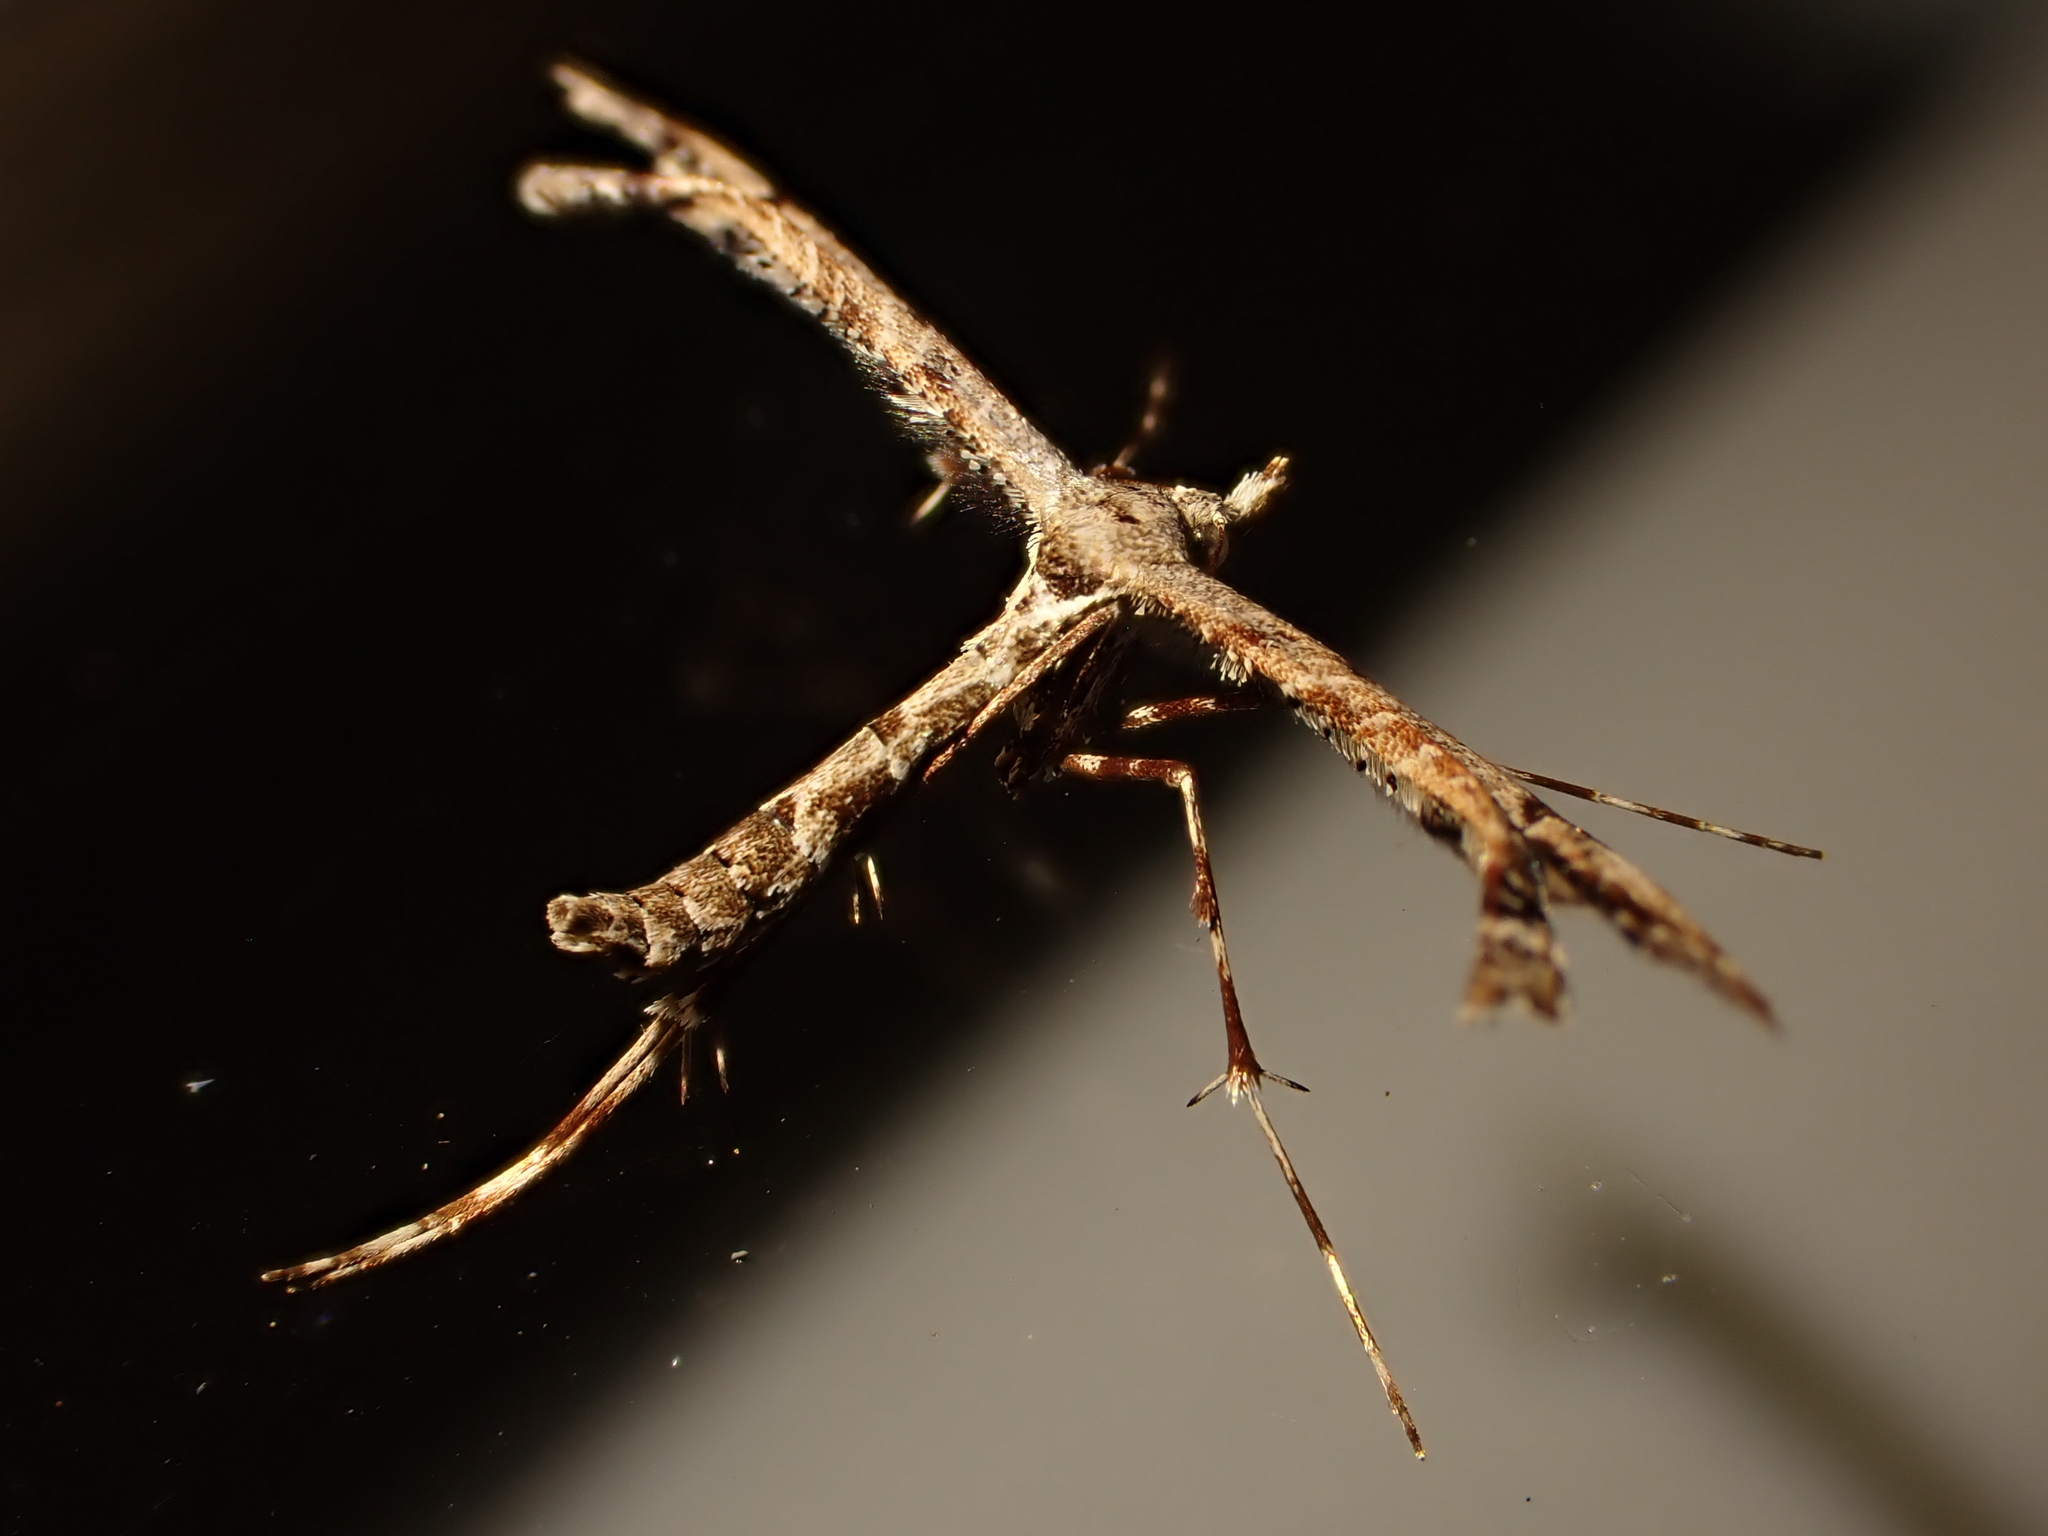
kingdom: Animalia
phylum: Arthropoda
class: Insecta
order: Lepidoptera
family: Pterophoridae
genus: Amblyptilia
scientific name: Amblyptilia repletalis
